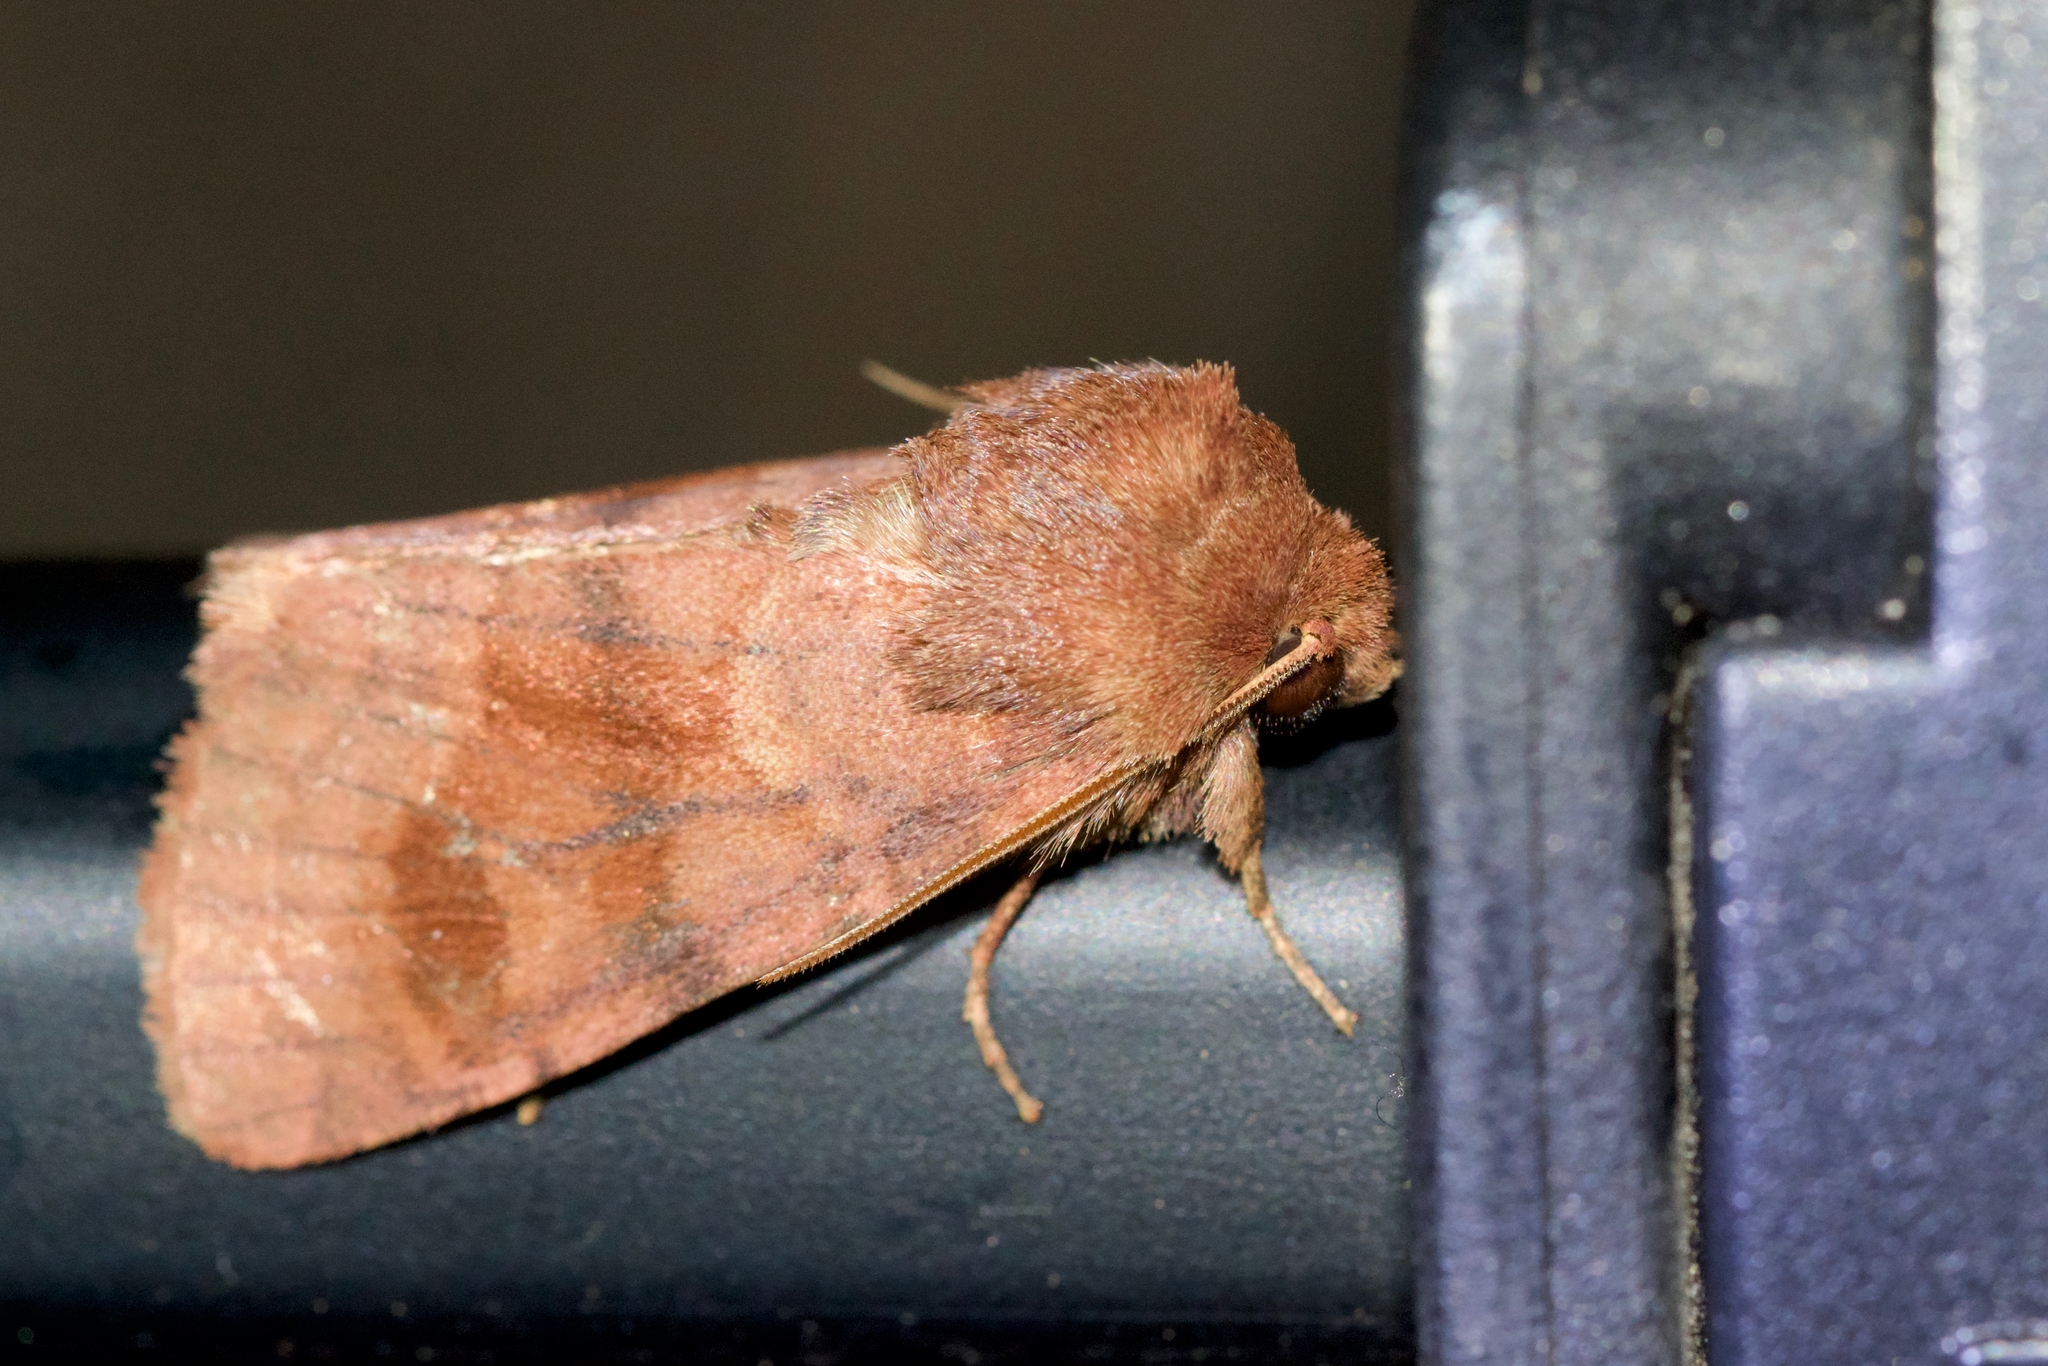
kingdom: Animalia
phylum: Arthropoda
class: Insecta
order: Lepidoptera
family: Noctuidae
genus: Nephelodes
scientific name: Nephelodes minians
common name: Bronzed cutworm
